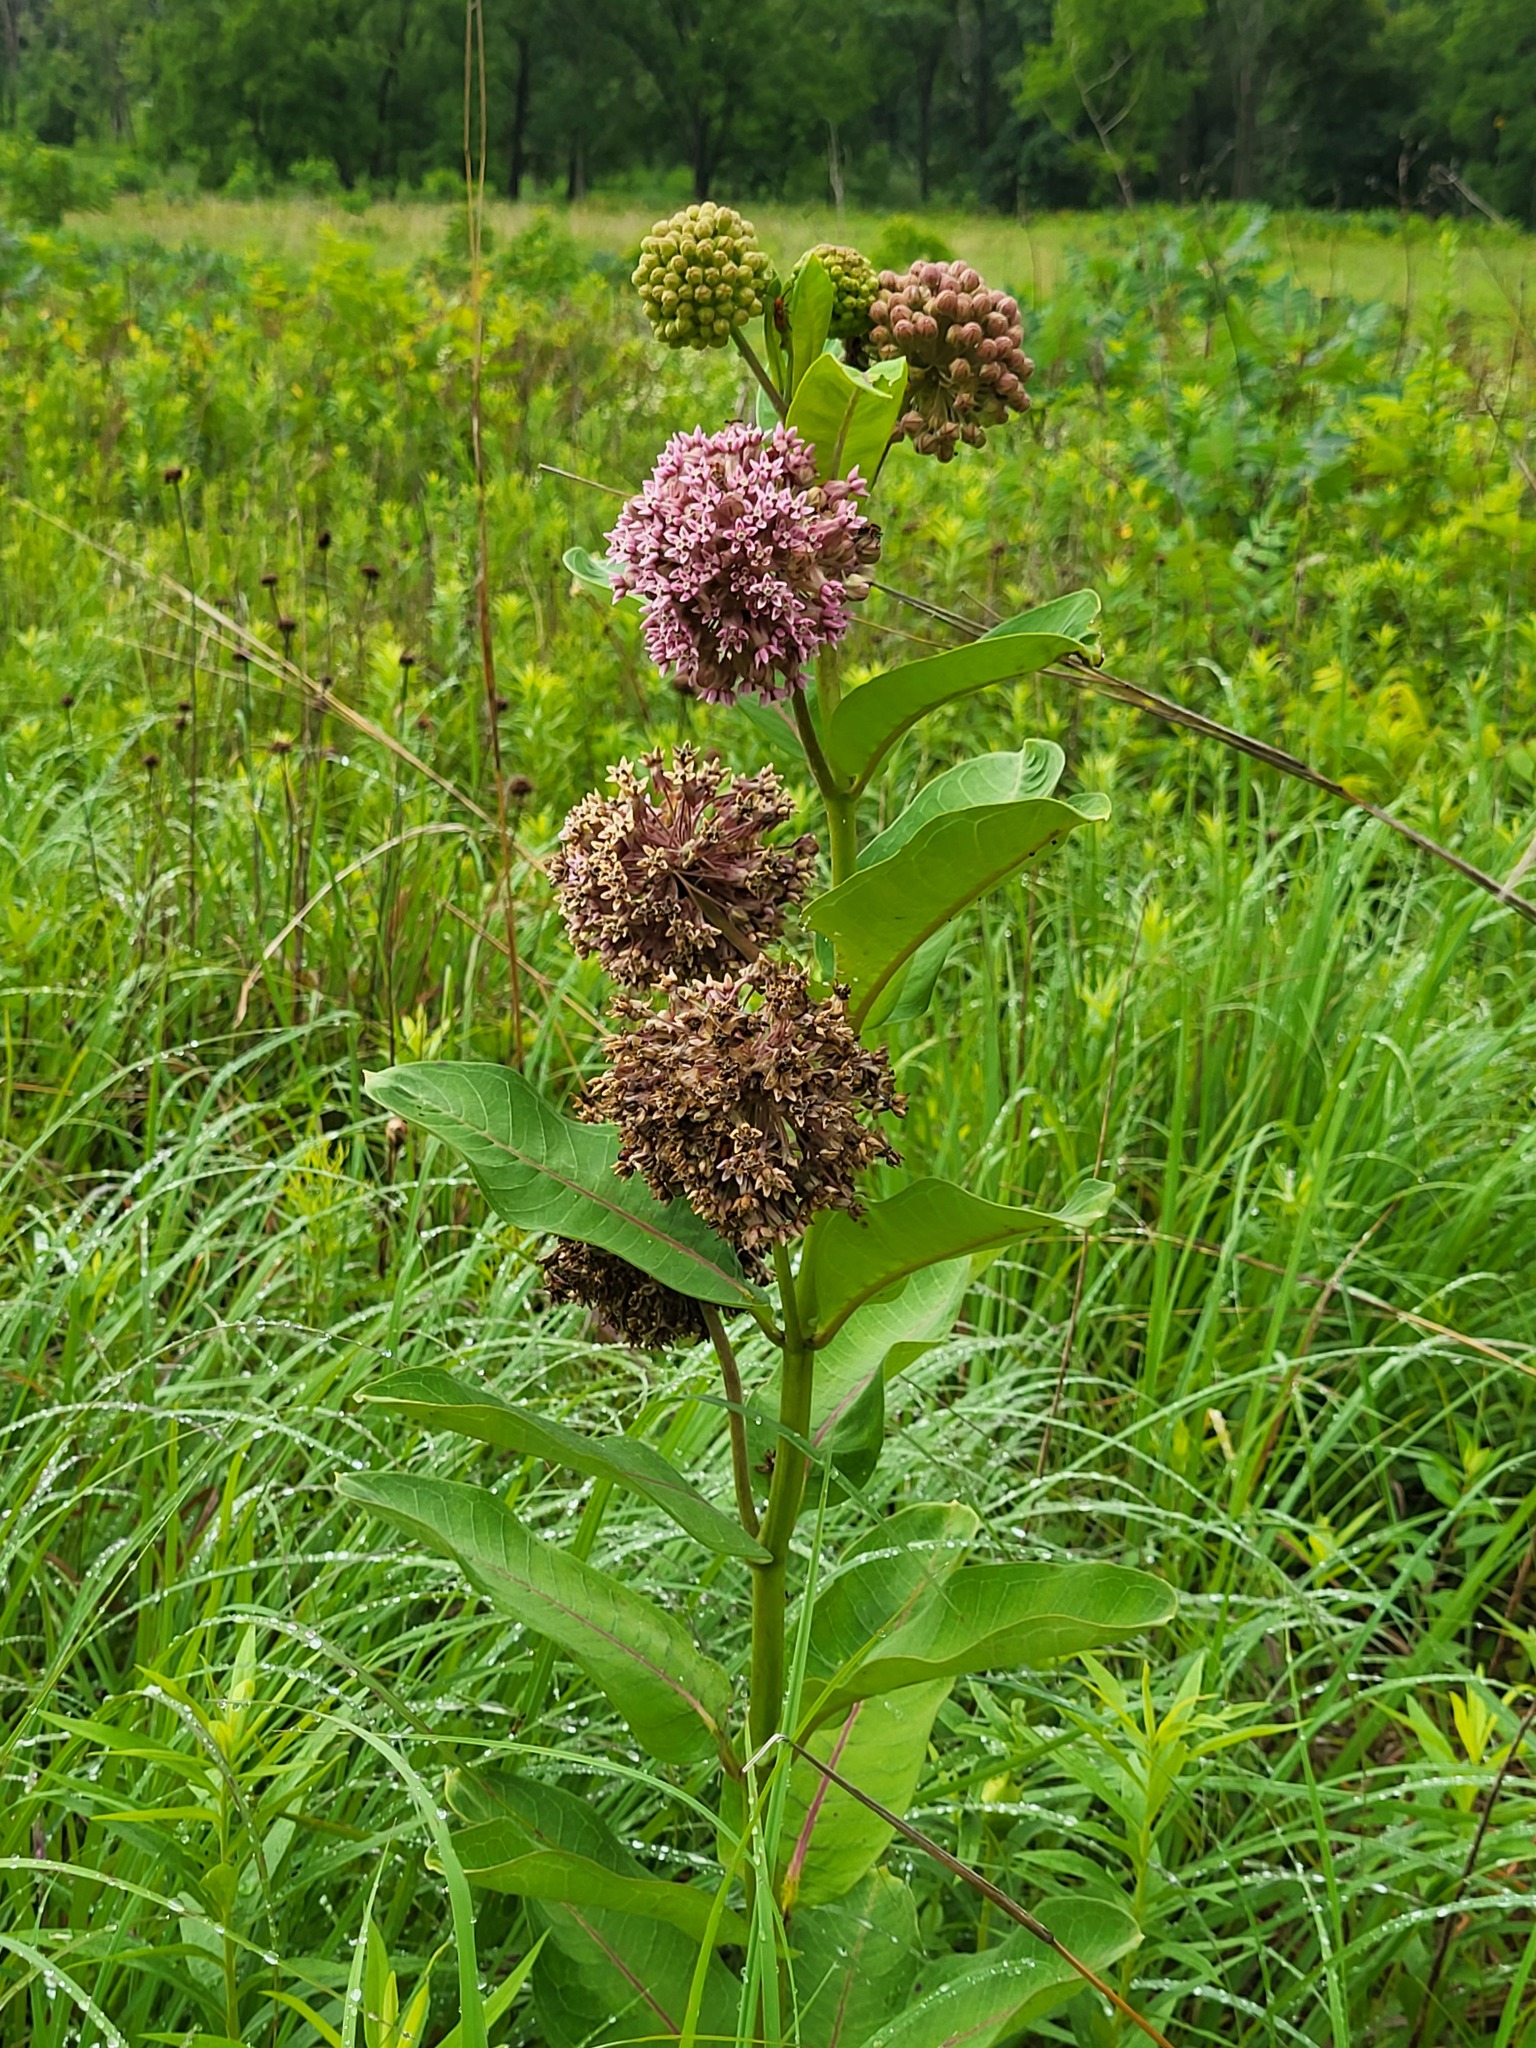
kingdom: Plantae
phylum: Tracheophyta
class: Magnoliopsida
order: Gentianales
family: Apocynaceae
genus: Asclepias
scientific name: Asclepias syriaca
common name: Common milkweed
